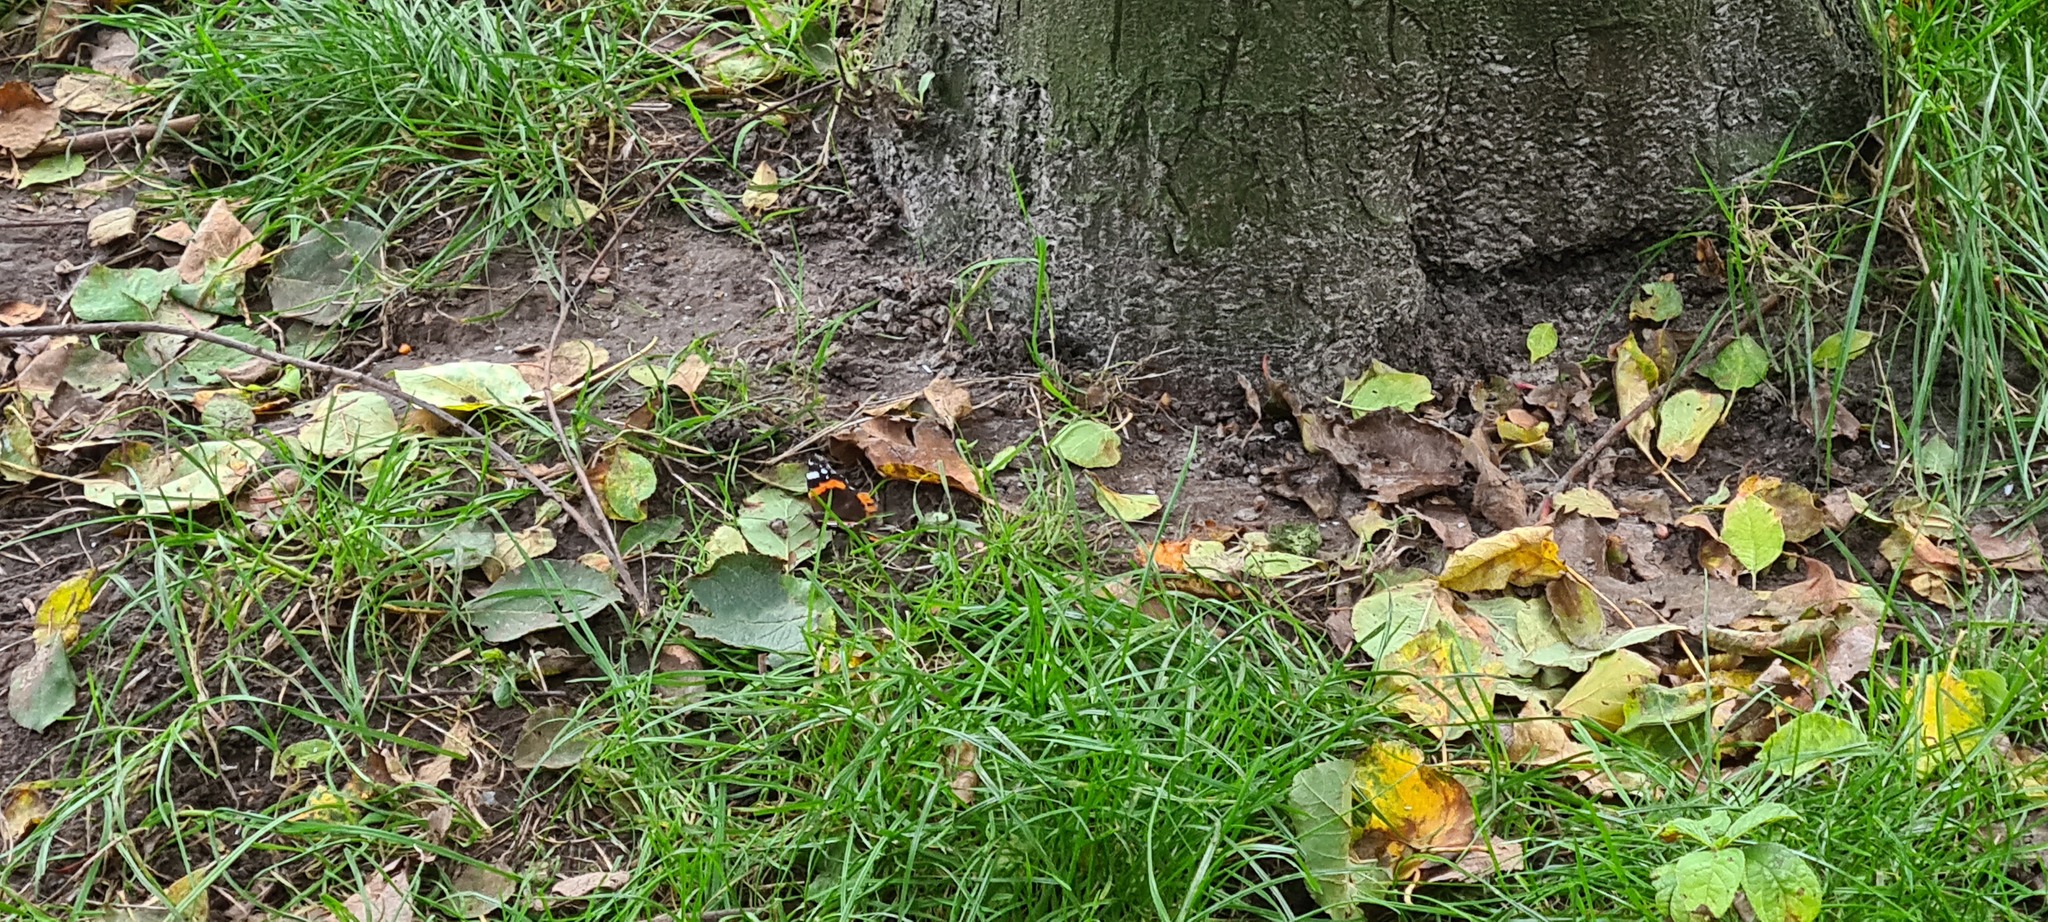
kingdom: Animalia
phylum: Arthropoda
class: Insecta
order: Lepidoptera
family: Nymphalidae
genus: Vanessa
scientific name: Vanessa atalanta
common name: Red admiral
